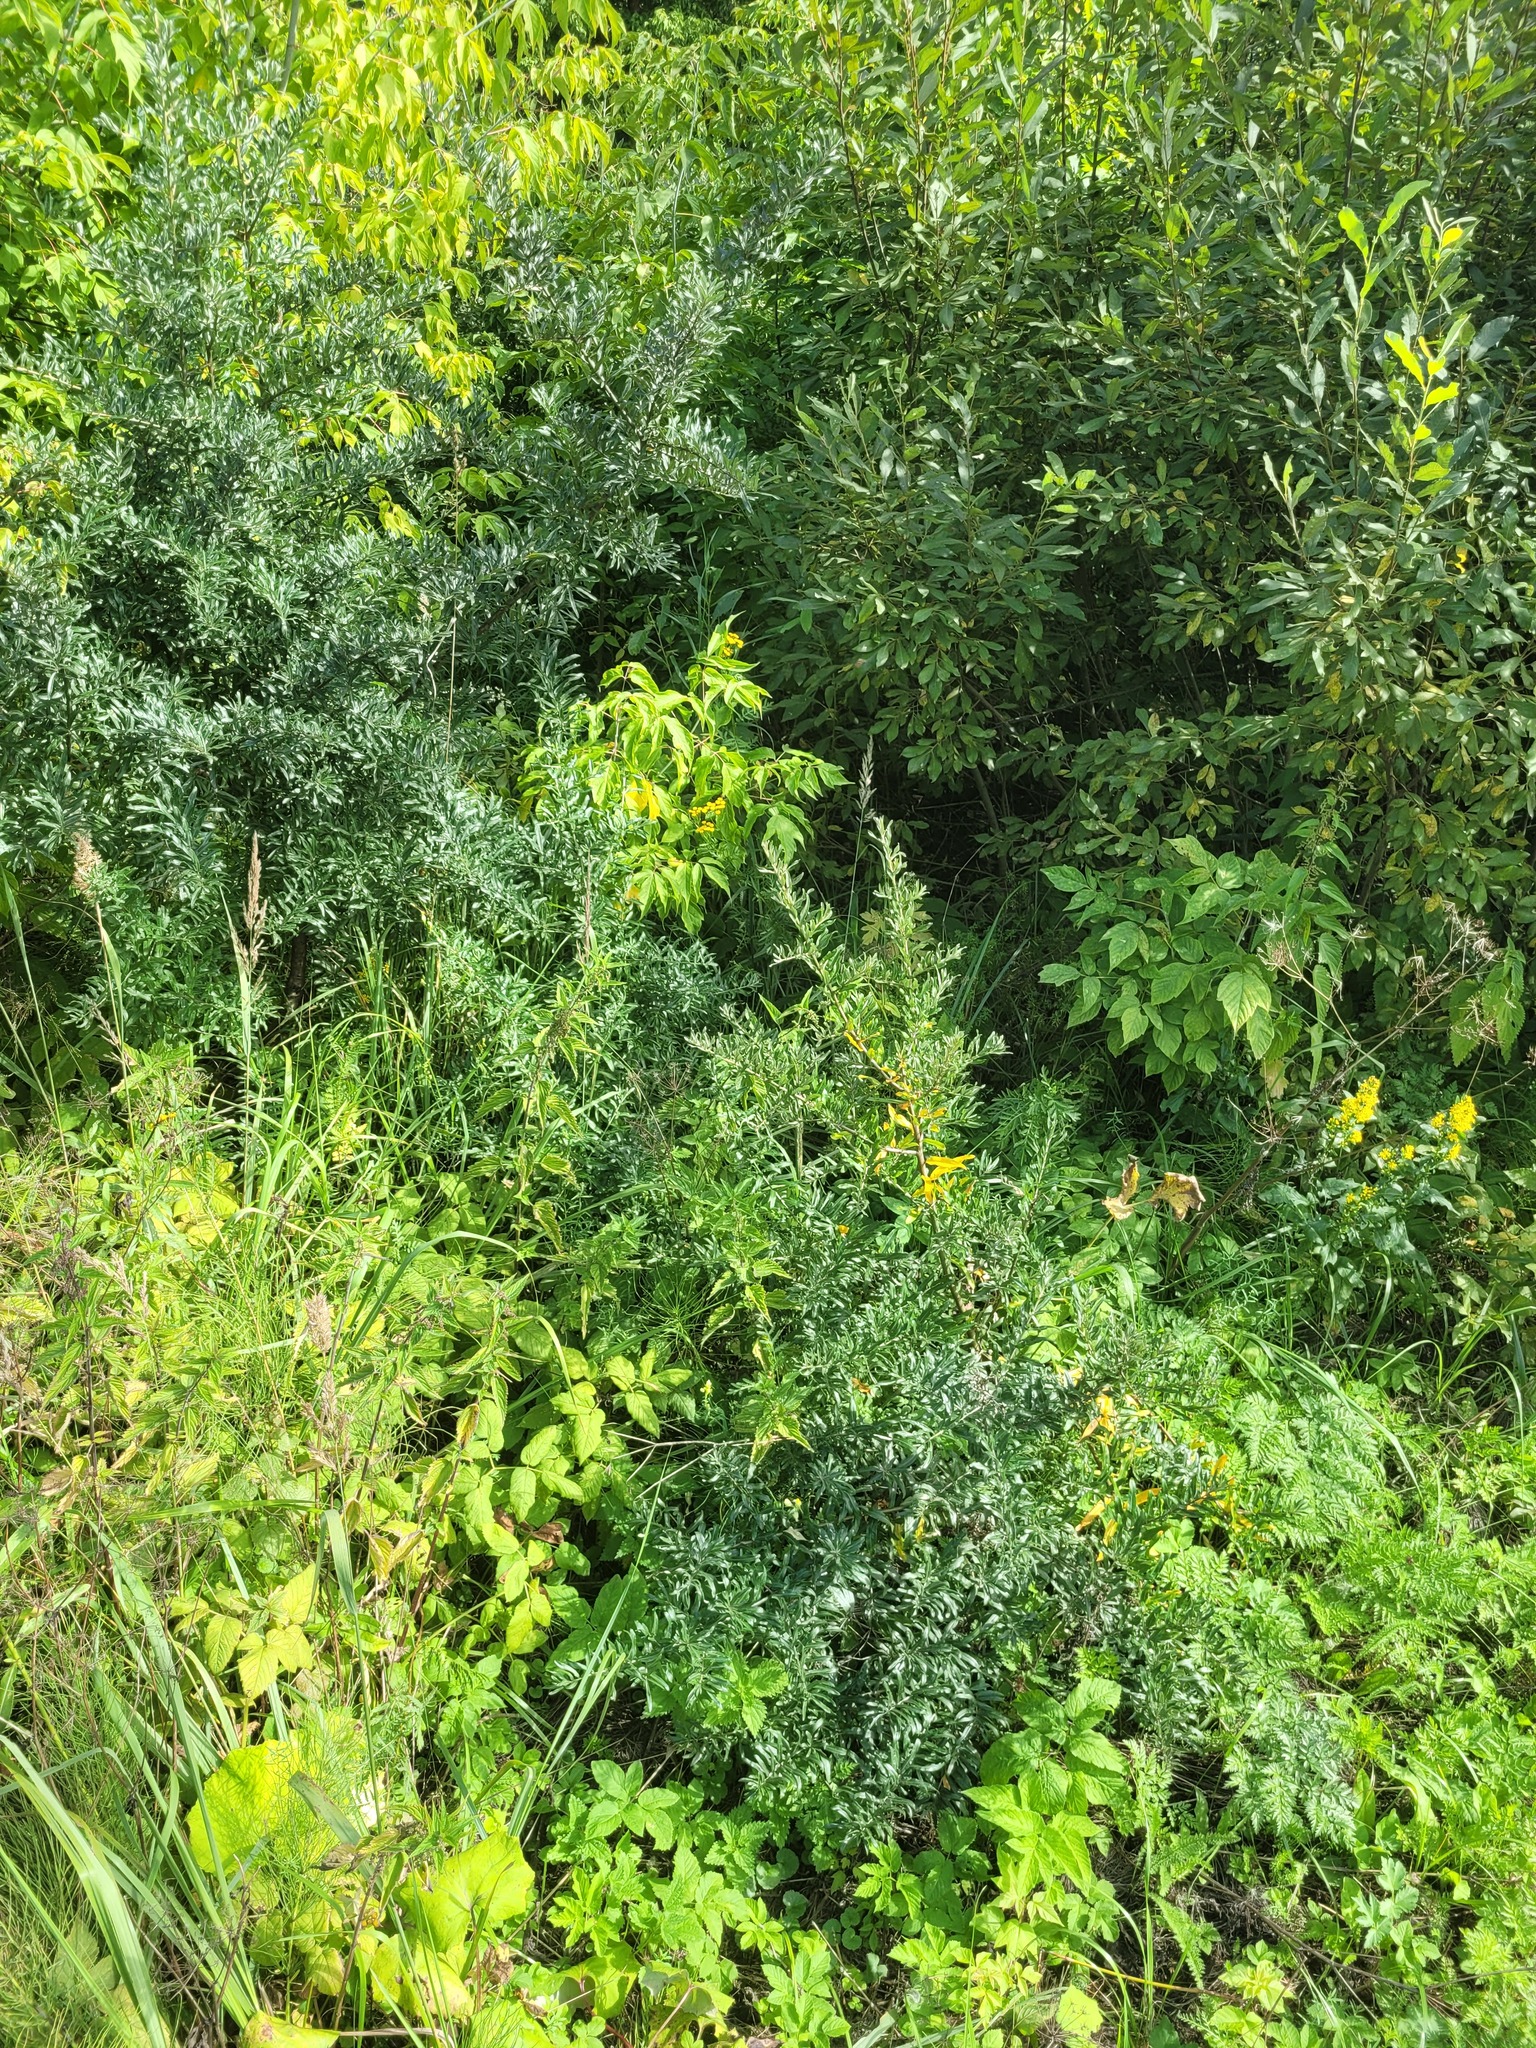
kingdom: Plantae
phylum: Tracheophyta
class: Magnoliopsida
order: Rosales
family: Elaeagnaceae
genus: Hippophae
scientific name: Hippophae rhamnoides
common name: Sea-buckthorn
